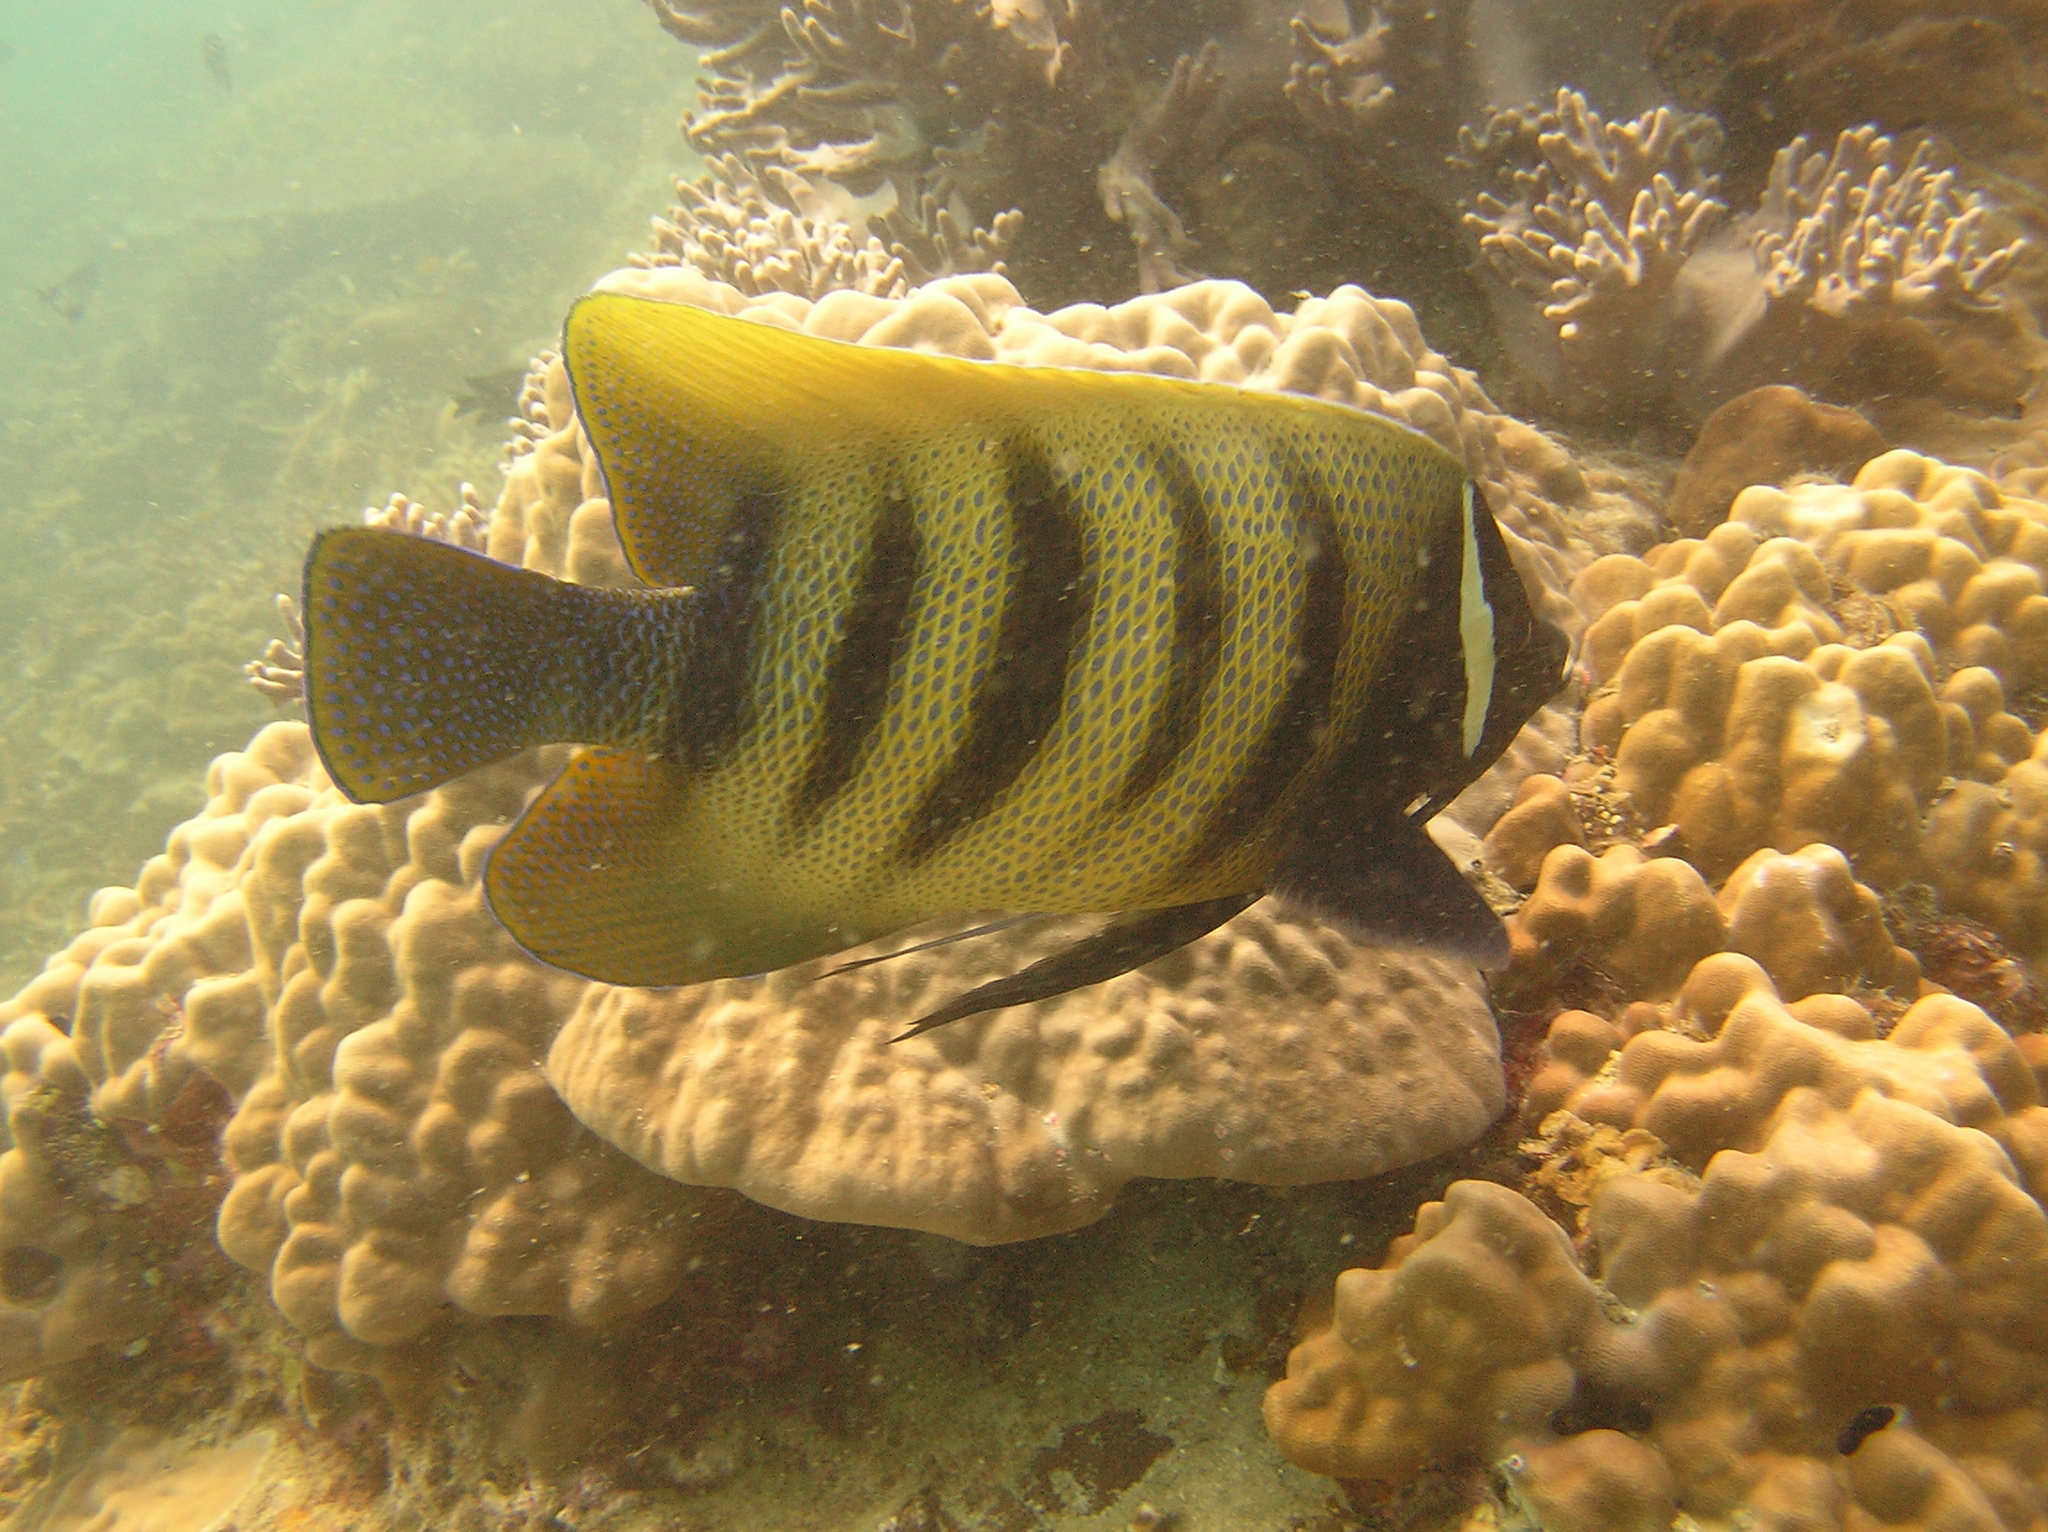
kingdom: Animalia
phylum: Chordata
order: Perciformes
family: Pomacanthidae
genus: Pomacanthus
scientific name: Pomacanthus sexstriatus
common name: Six-banded angelfish
